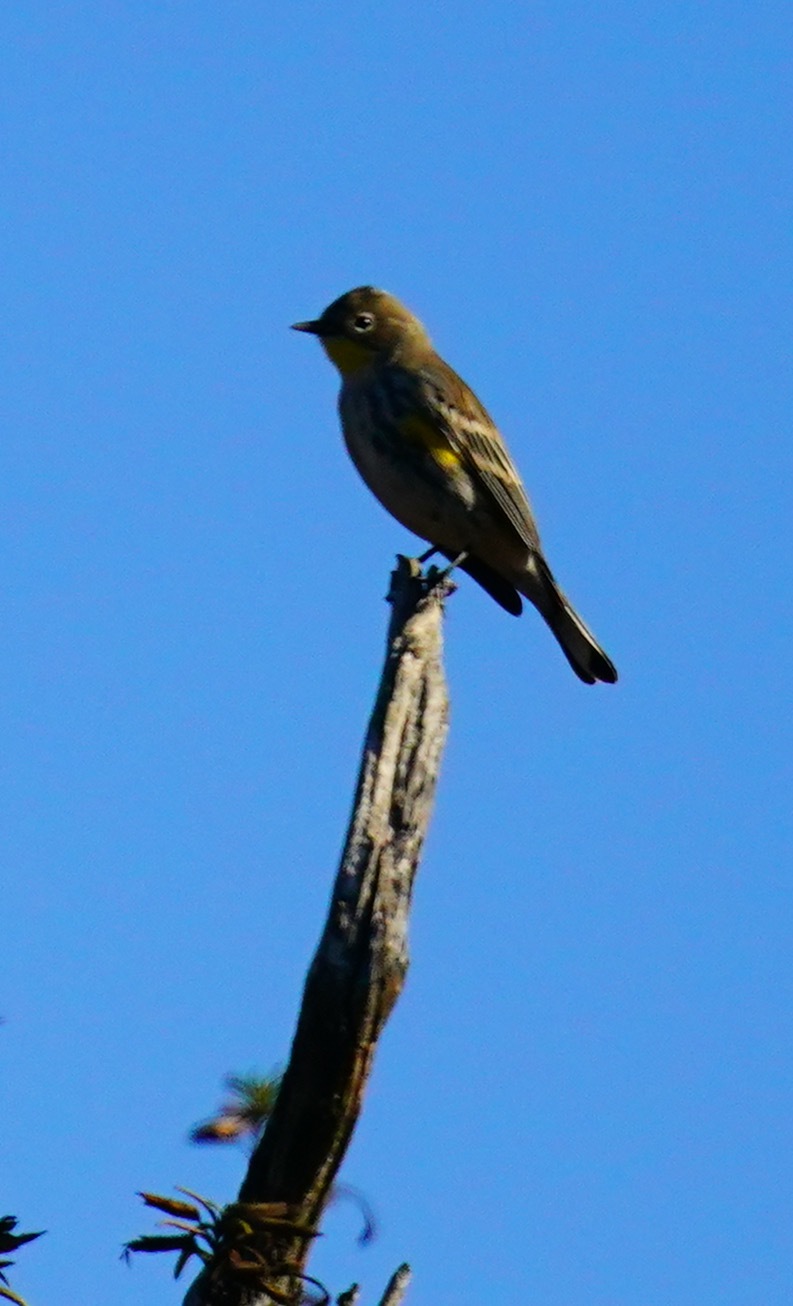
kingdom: Animalia
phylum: Chordata
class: Aves
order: Passeriformes
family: Parulidae
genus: Setophaga
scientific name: Setophaga coronata
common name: Myrtle warbler
